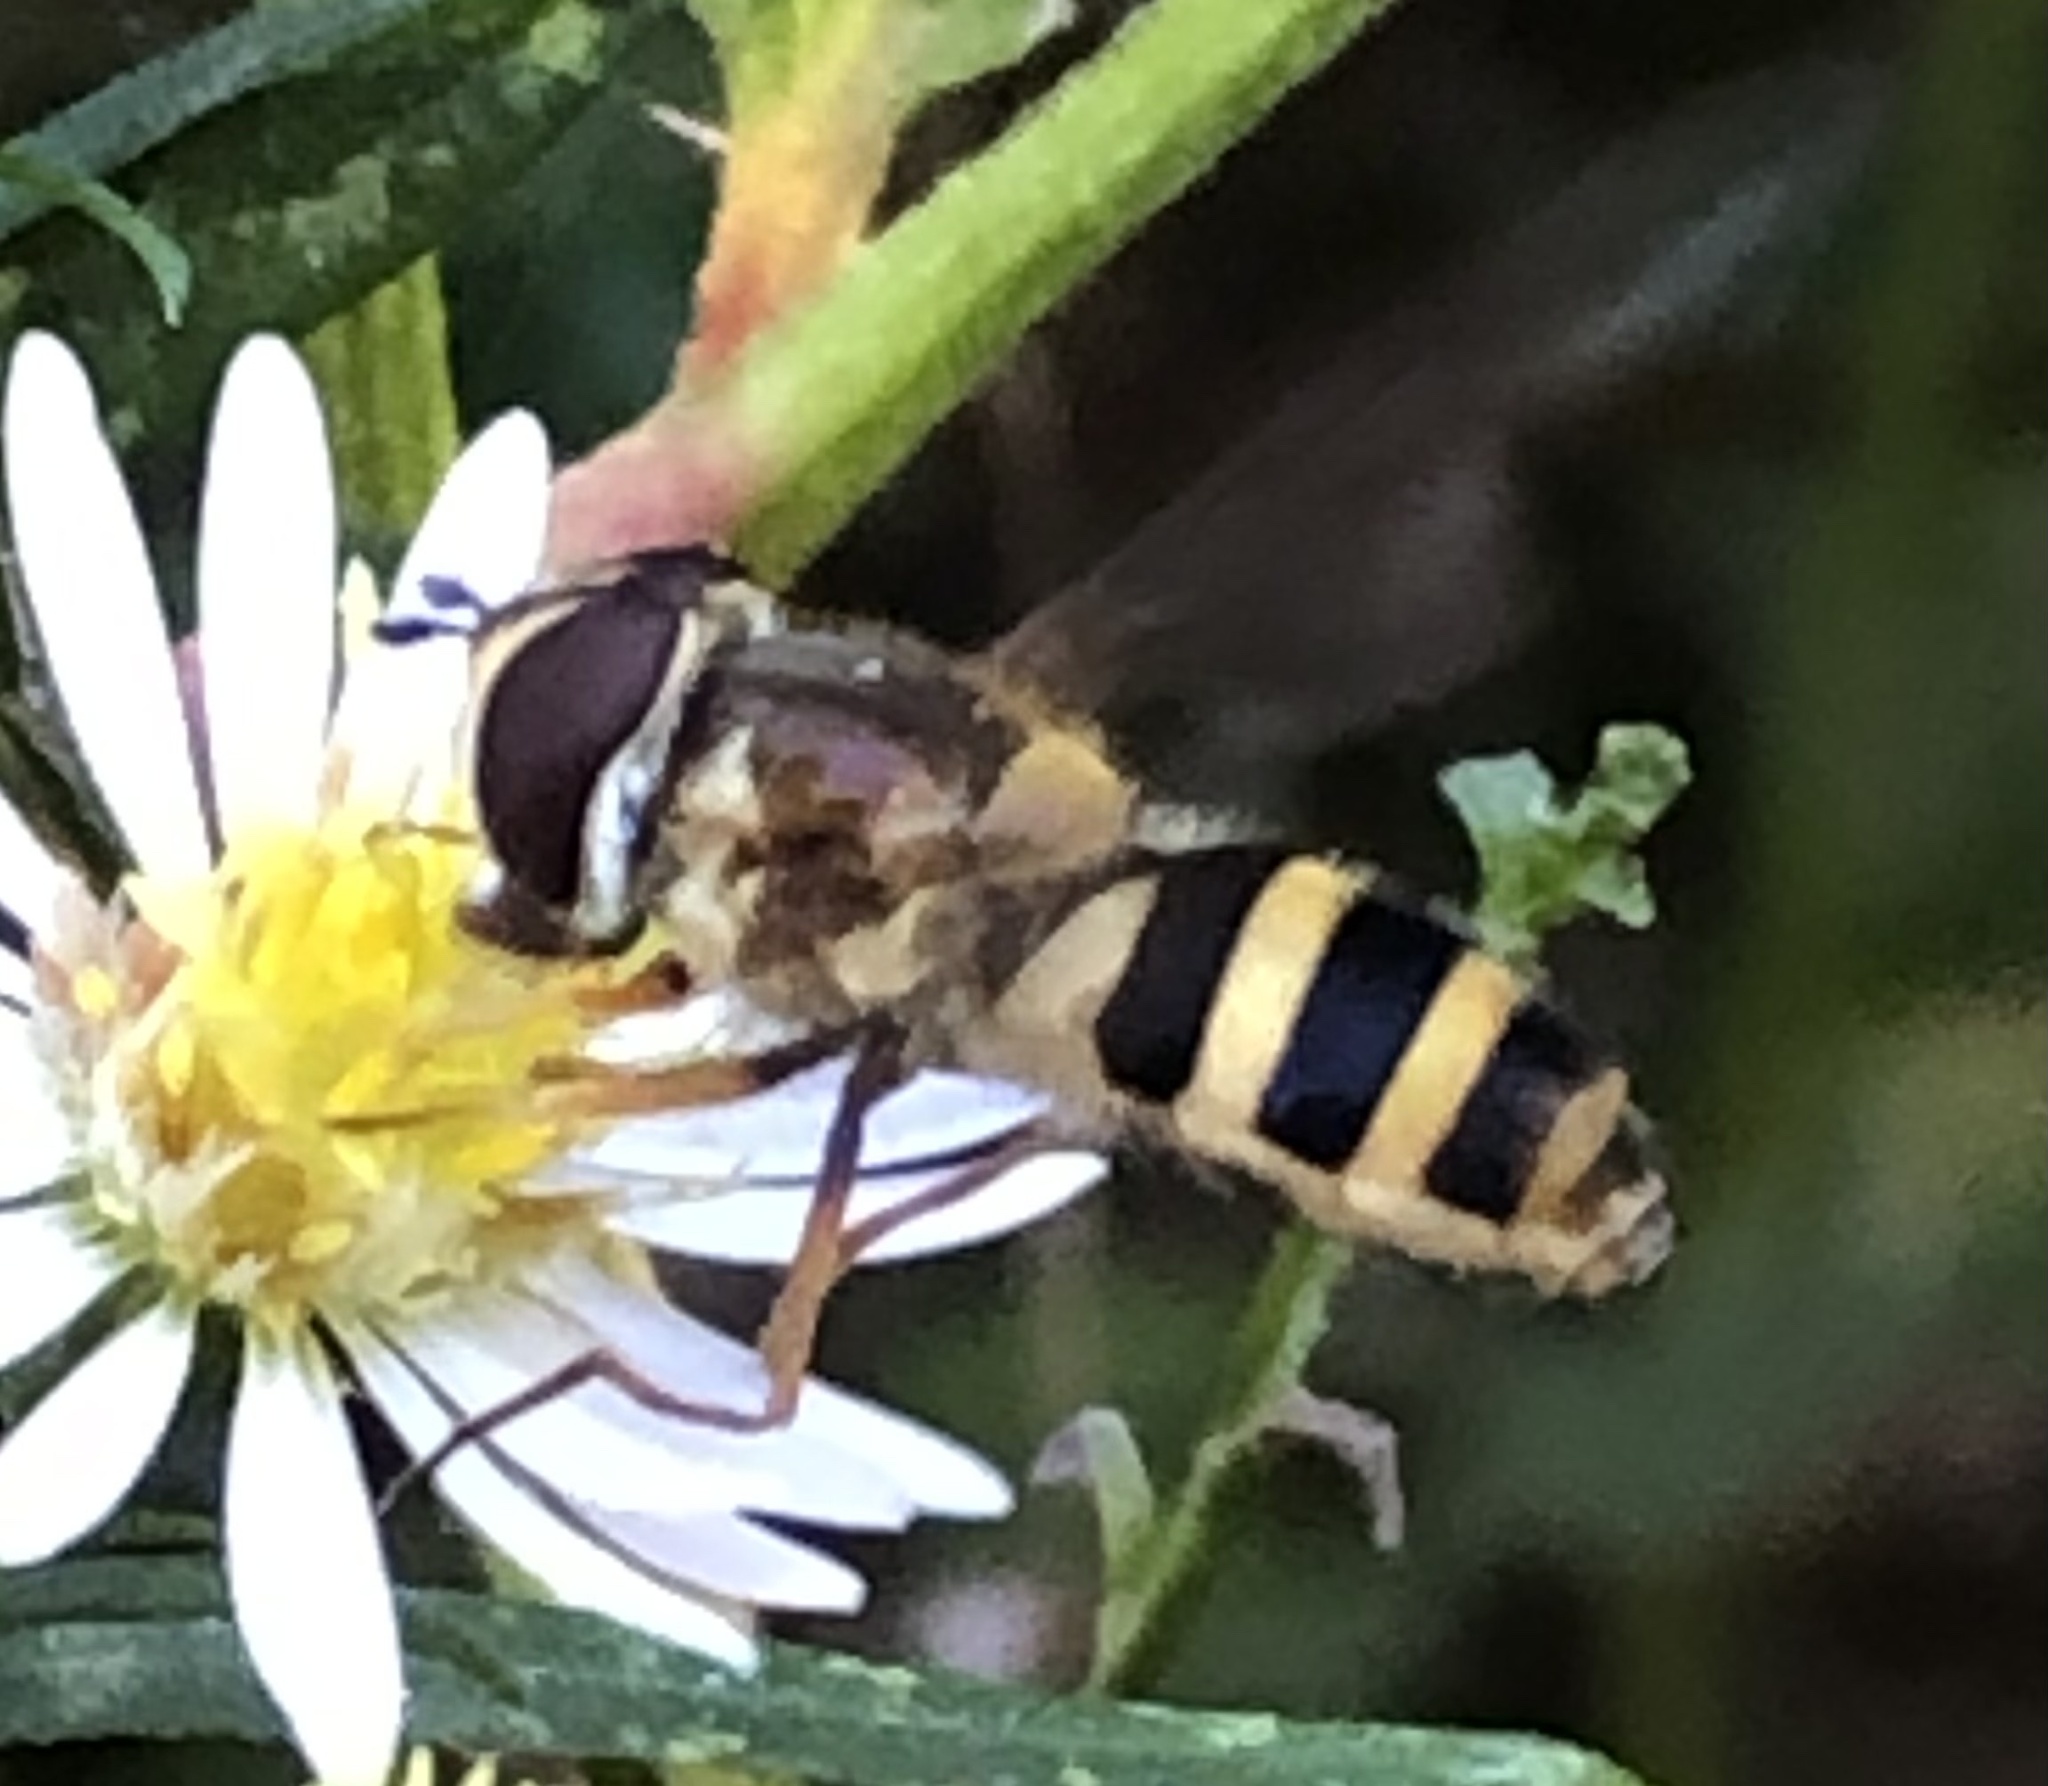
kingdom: Animalia
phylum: Arthropoda
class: Insecta
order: Diptera
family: Syrphidae
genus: Epistrophe
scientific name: Epistrophe grossulariae
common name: Black-horned smoothtail
